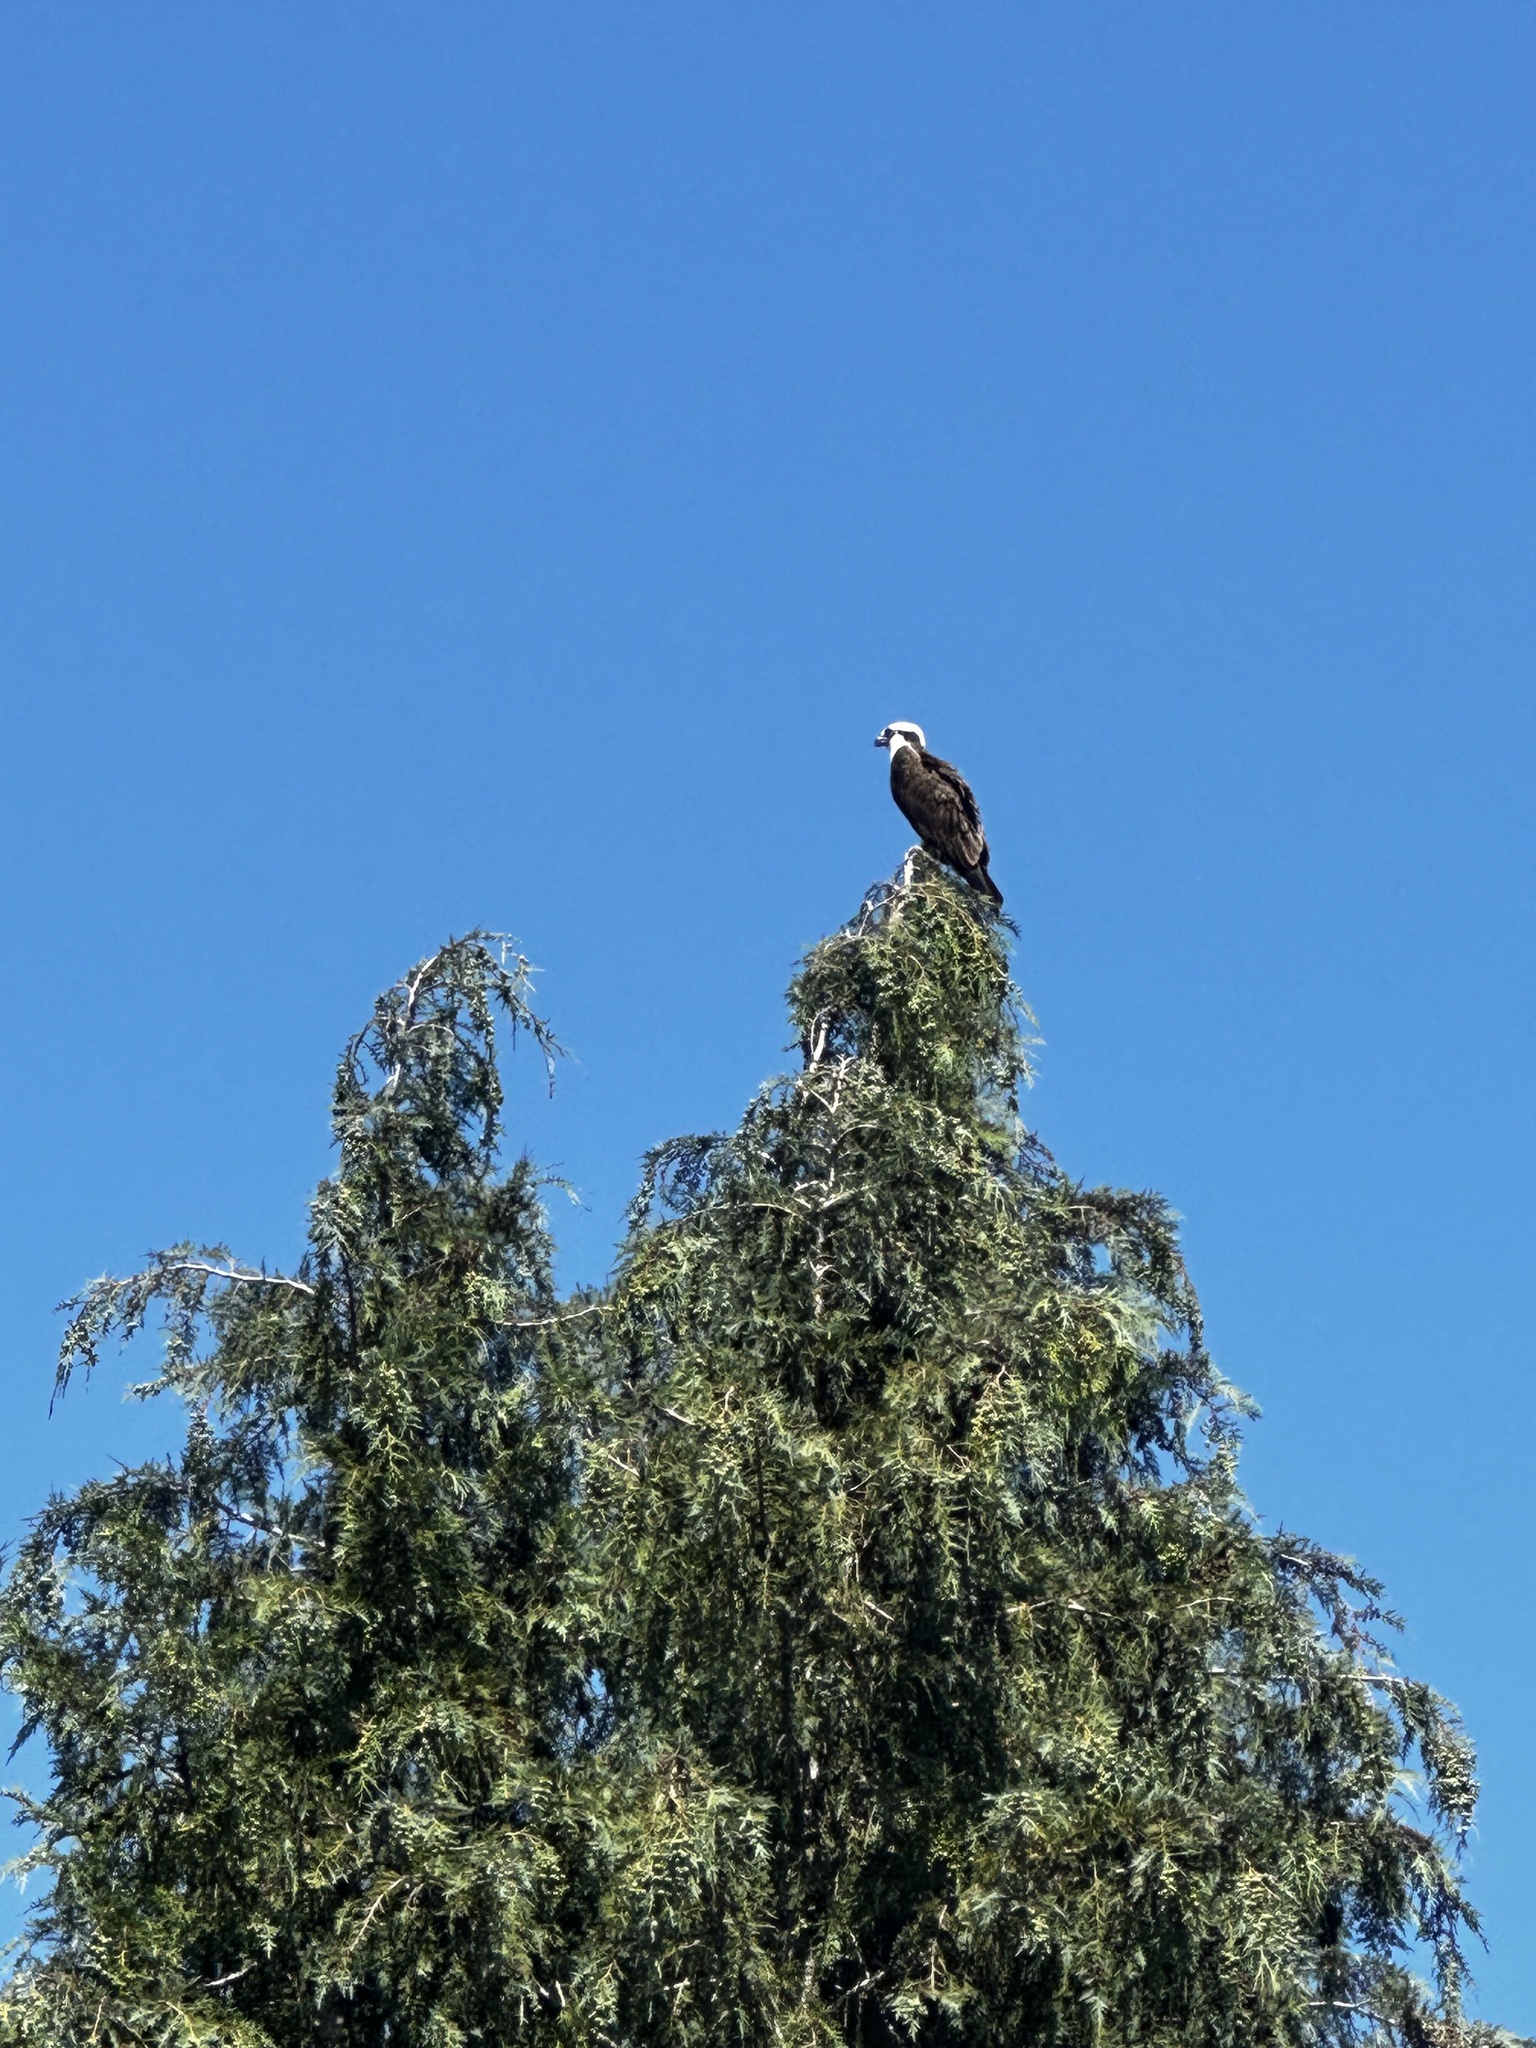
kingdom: Animalia
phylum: Chordata
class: Aves
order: Accipitriformes
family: Pandionidae
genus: Pandion
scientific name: Pandion haliaetus
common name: Osprey
